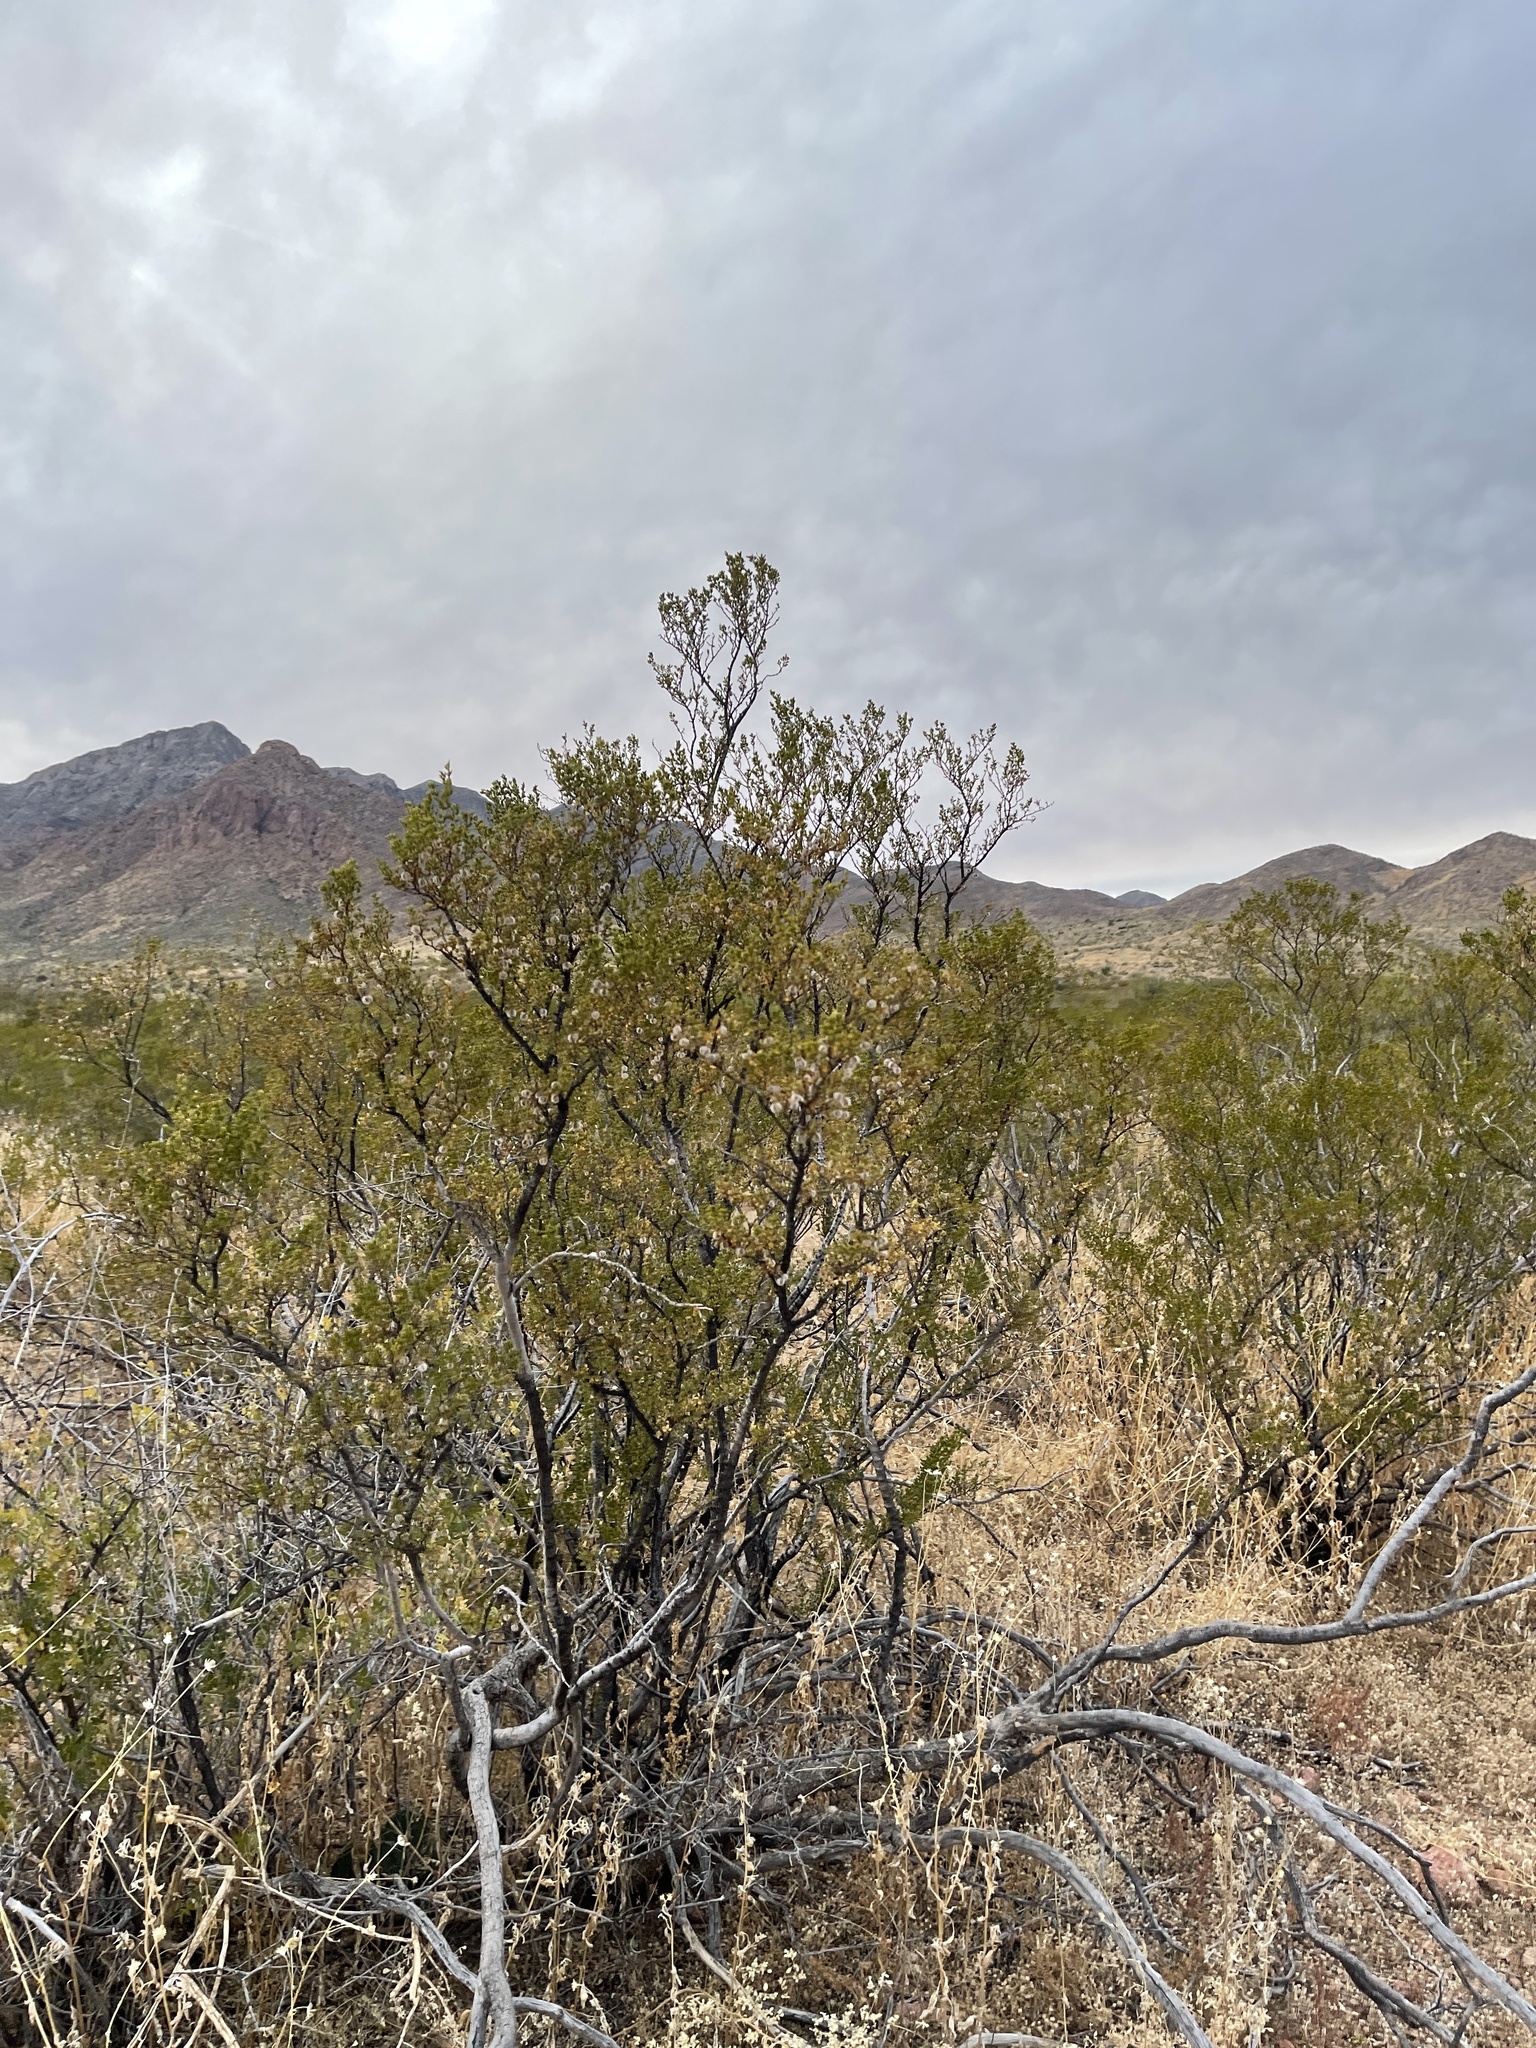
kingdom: Plantae
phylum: Tracheophyta
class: Magnoliopsida
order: Zygophyllales
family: Zygophyllaceae
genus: Larrea
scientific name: Larrea tridentata
